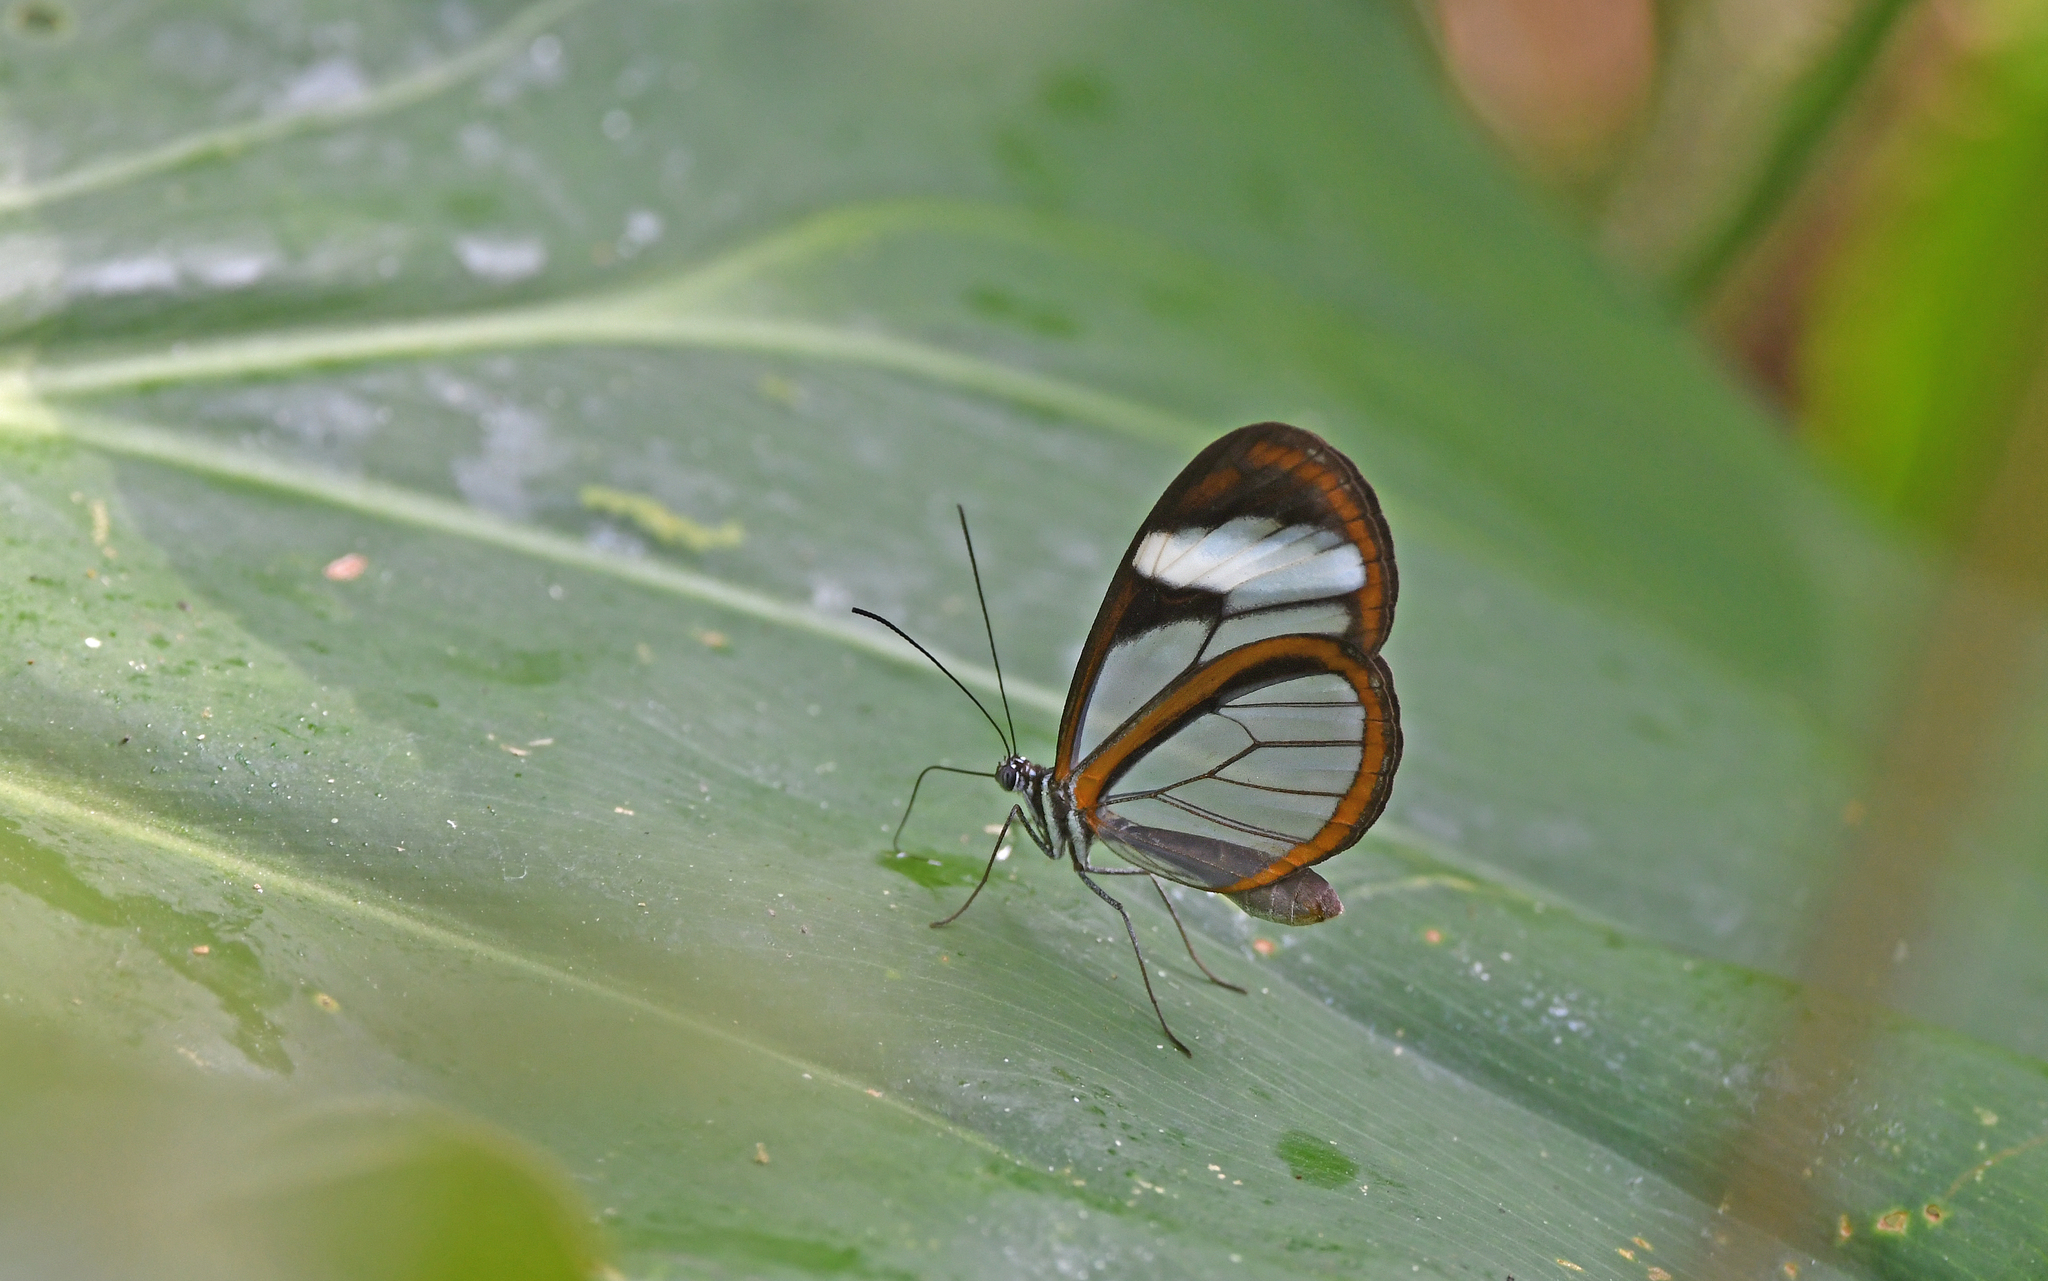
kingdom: Animalia
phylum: Arthropoda
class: Insecta
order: Lepidoptera
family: Nymphalidae
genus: Oleria
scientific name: Oleria victorine
